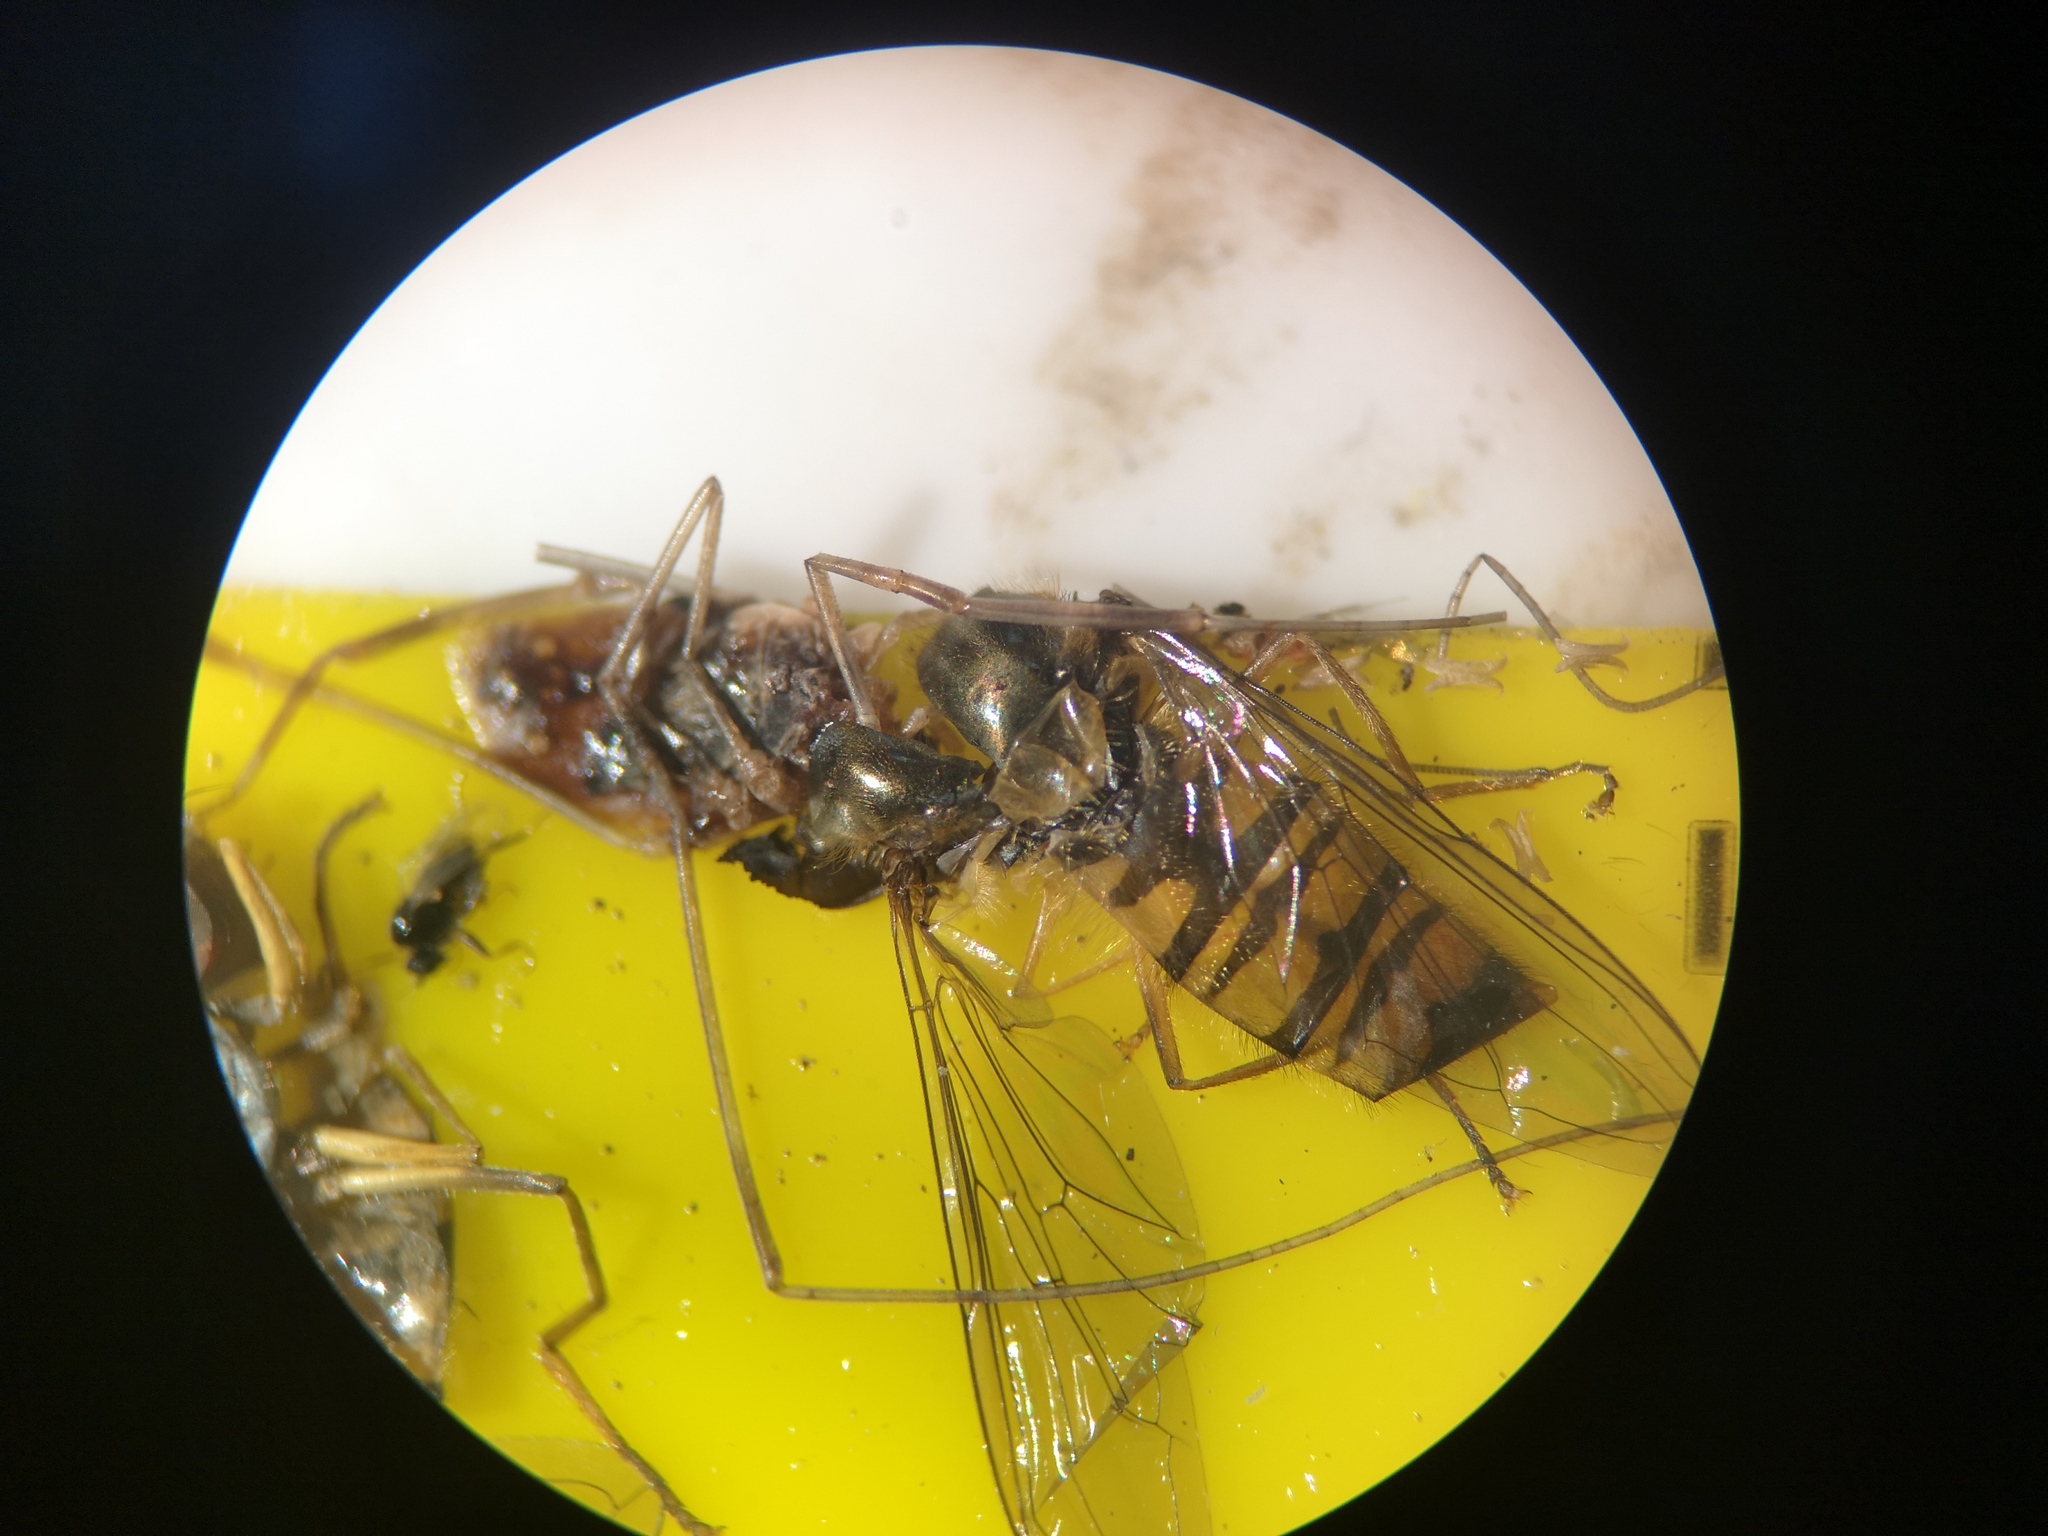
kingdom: Animalia
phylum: Arthropoda
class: Insecta
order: Diptera
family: Syrphidae
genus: Episyrphus
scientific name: Episyrphus balteatus
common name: Marmalade hoverfly
